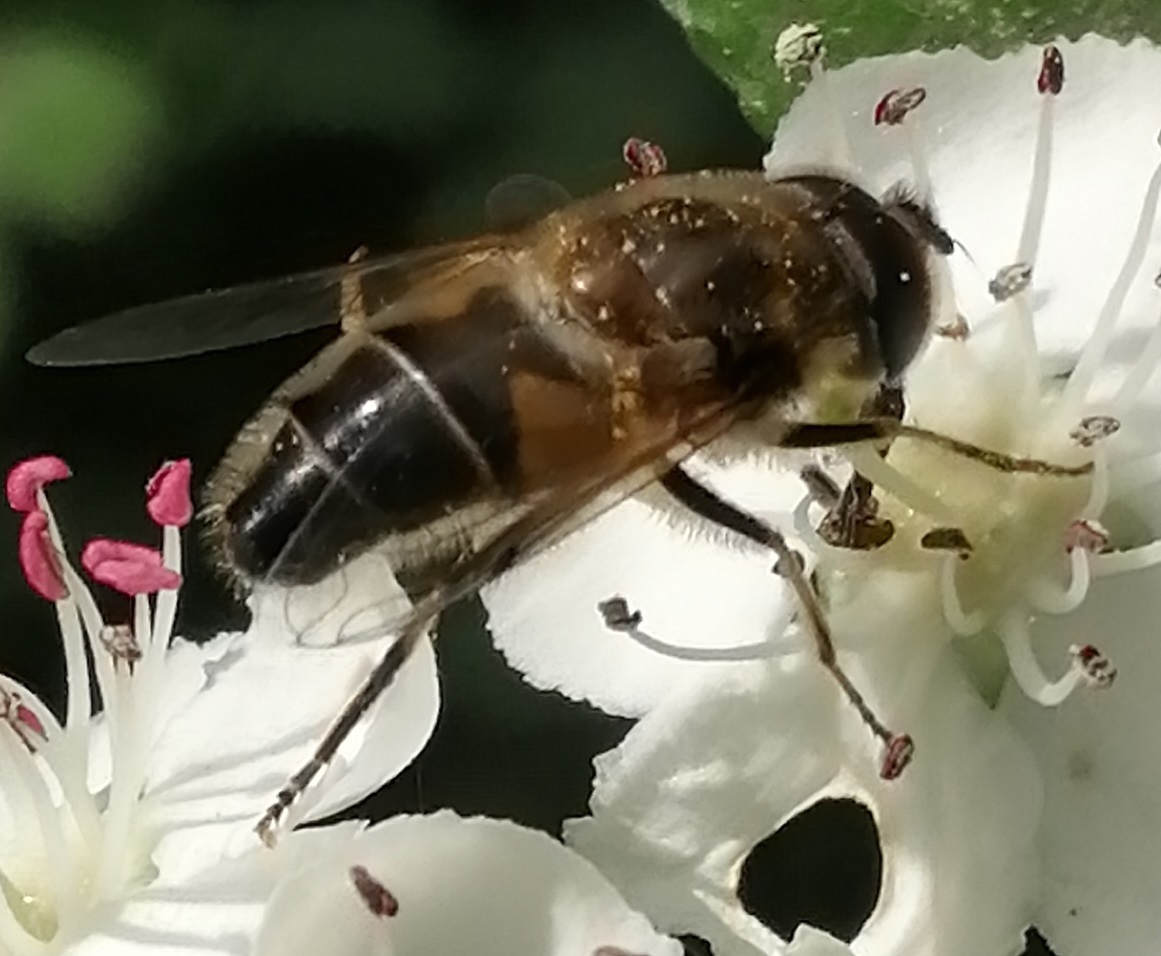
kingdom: Animalia
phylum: Arthropoda
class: Insecta
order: Diptera
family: Syrphidae
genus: Eristalis
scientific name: Eristalis pertinax
